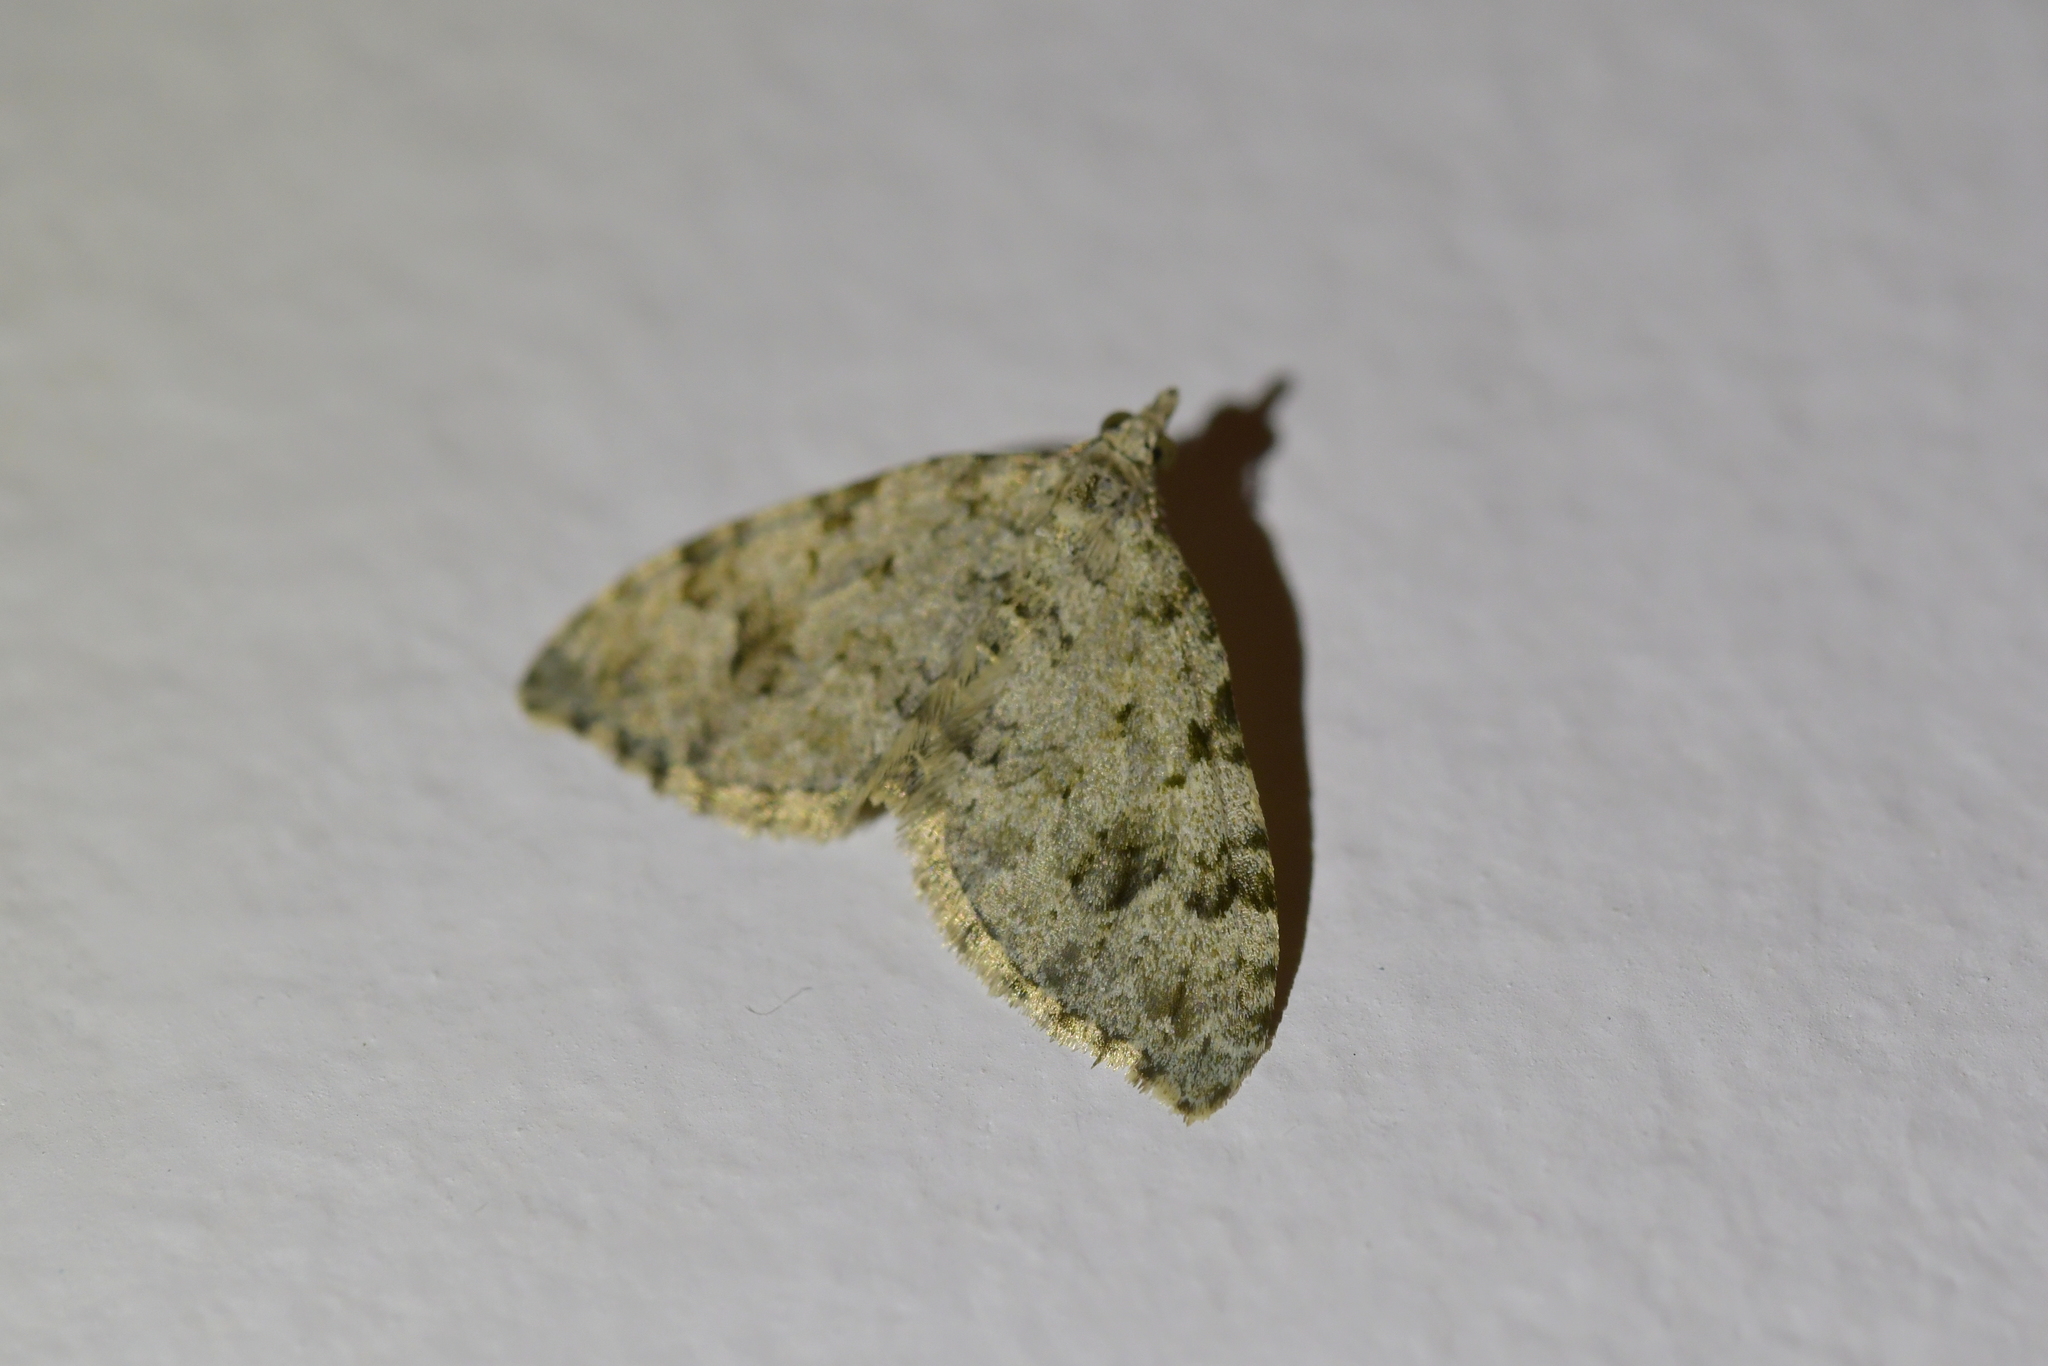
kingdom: Animalia
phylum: Arthropoda
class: Insecta
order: Lepidoptera
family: Geometridae
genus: Helastia
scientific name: Helastia cinerearia
